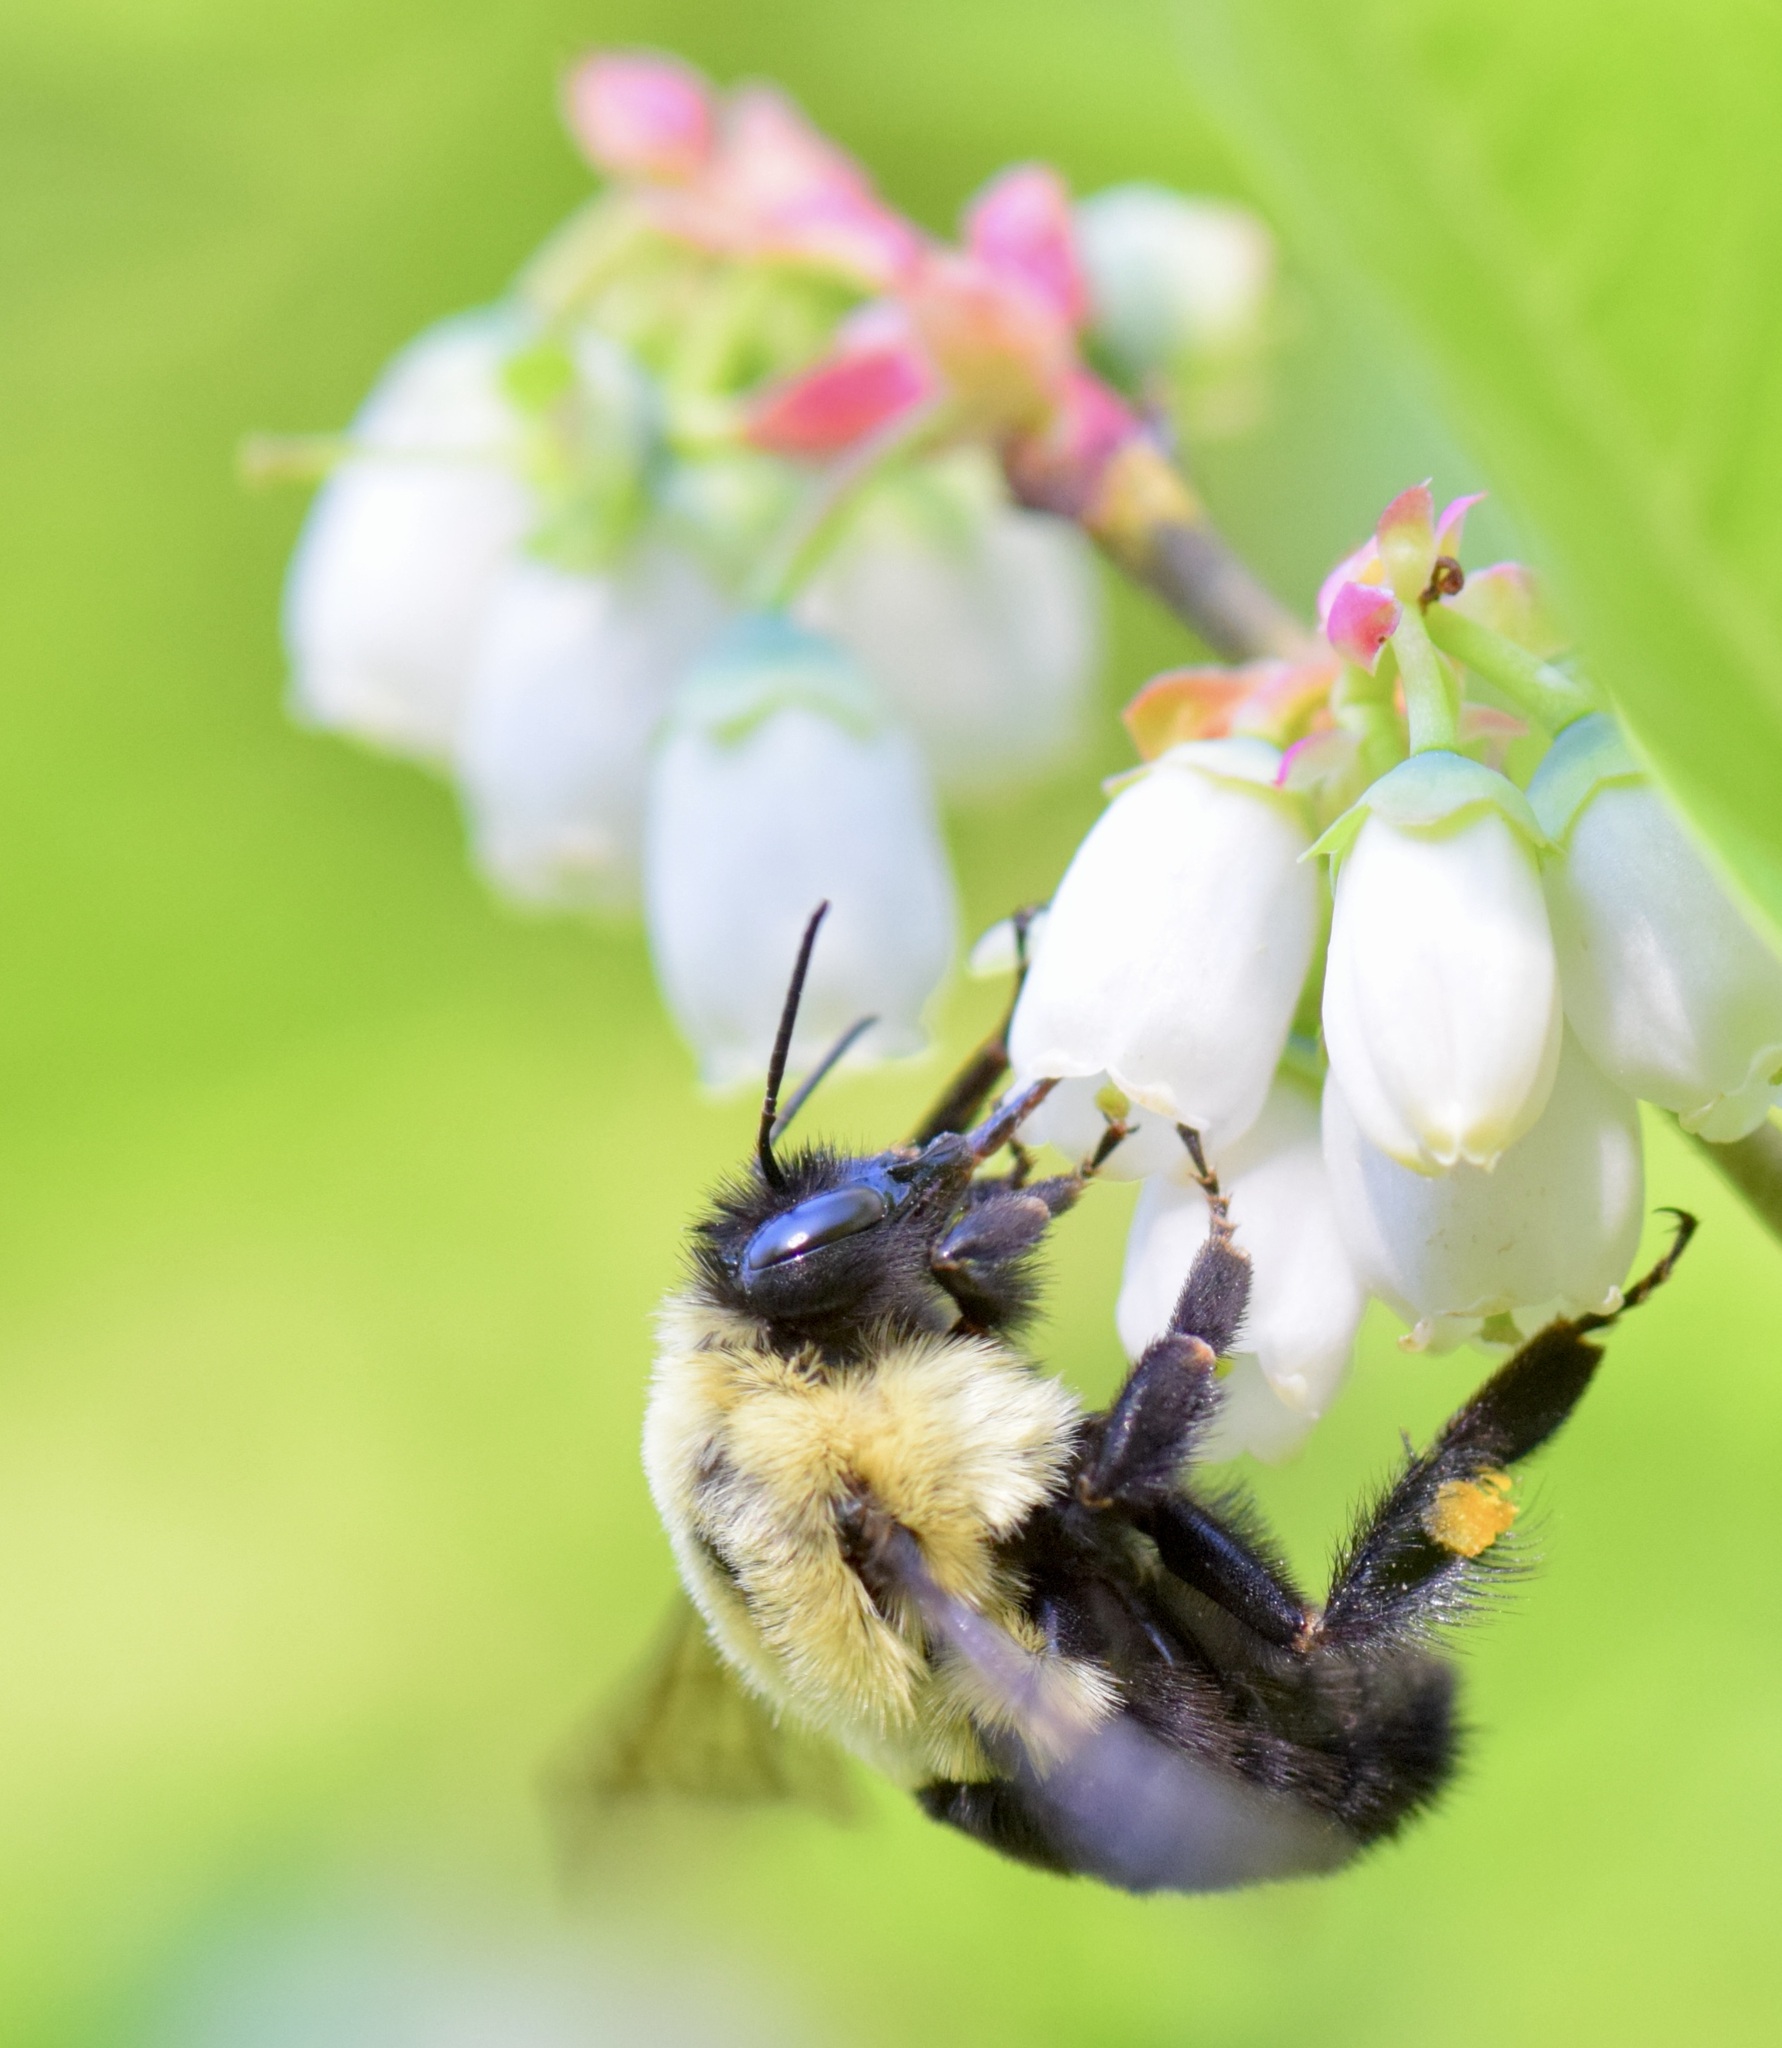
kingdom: Animalia
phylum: Arthropoda
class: Insecta
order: Hymenoptera
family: Apidae
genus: Bombus
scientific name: Bombus impatiens
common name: Common eastern bumble bee
